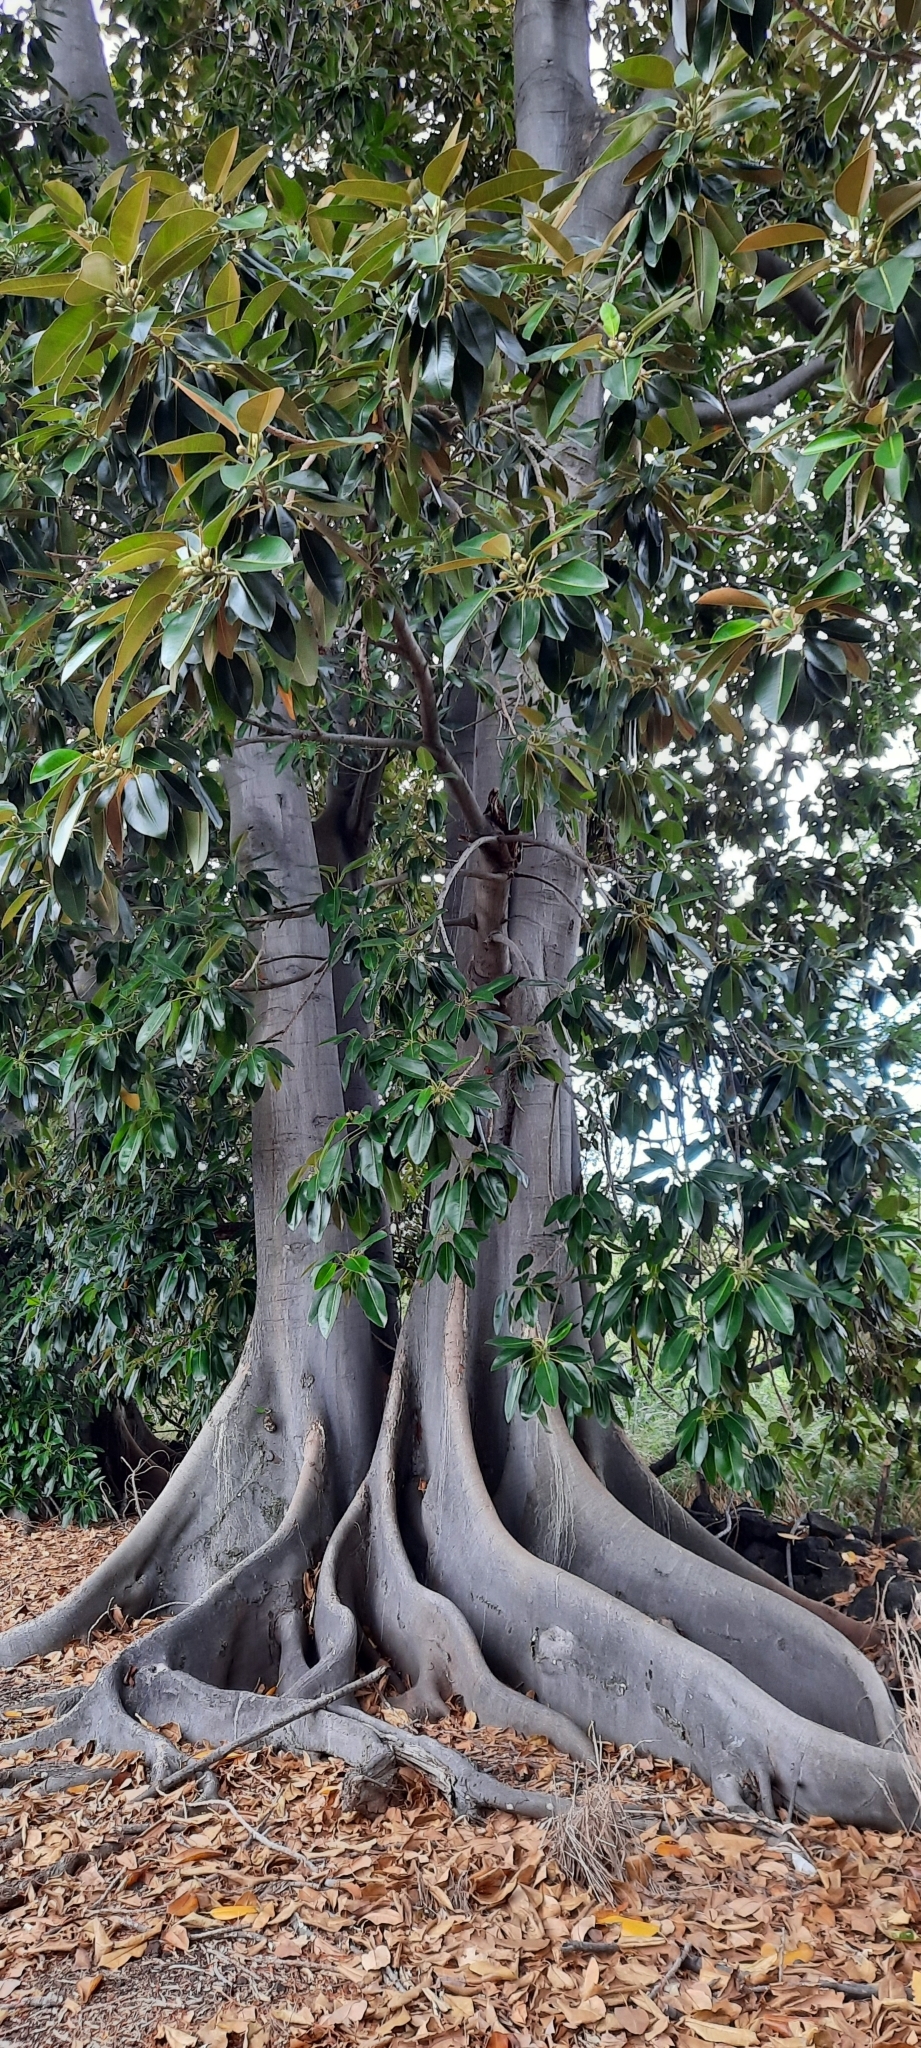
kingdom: Plantae
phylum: Tracheophyta
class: Magnoliopsida
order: Rosales
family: Moraceae
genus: Ficus
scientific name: Ficus macrophylla
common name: Moreton bay fig
